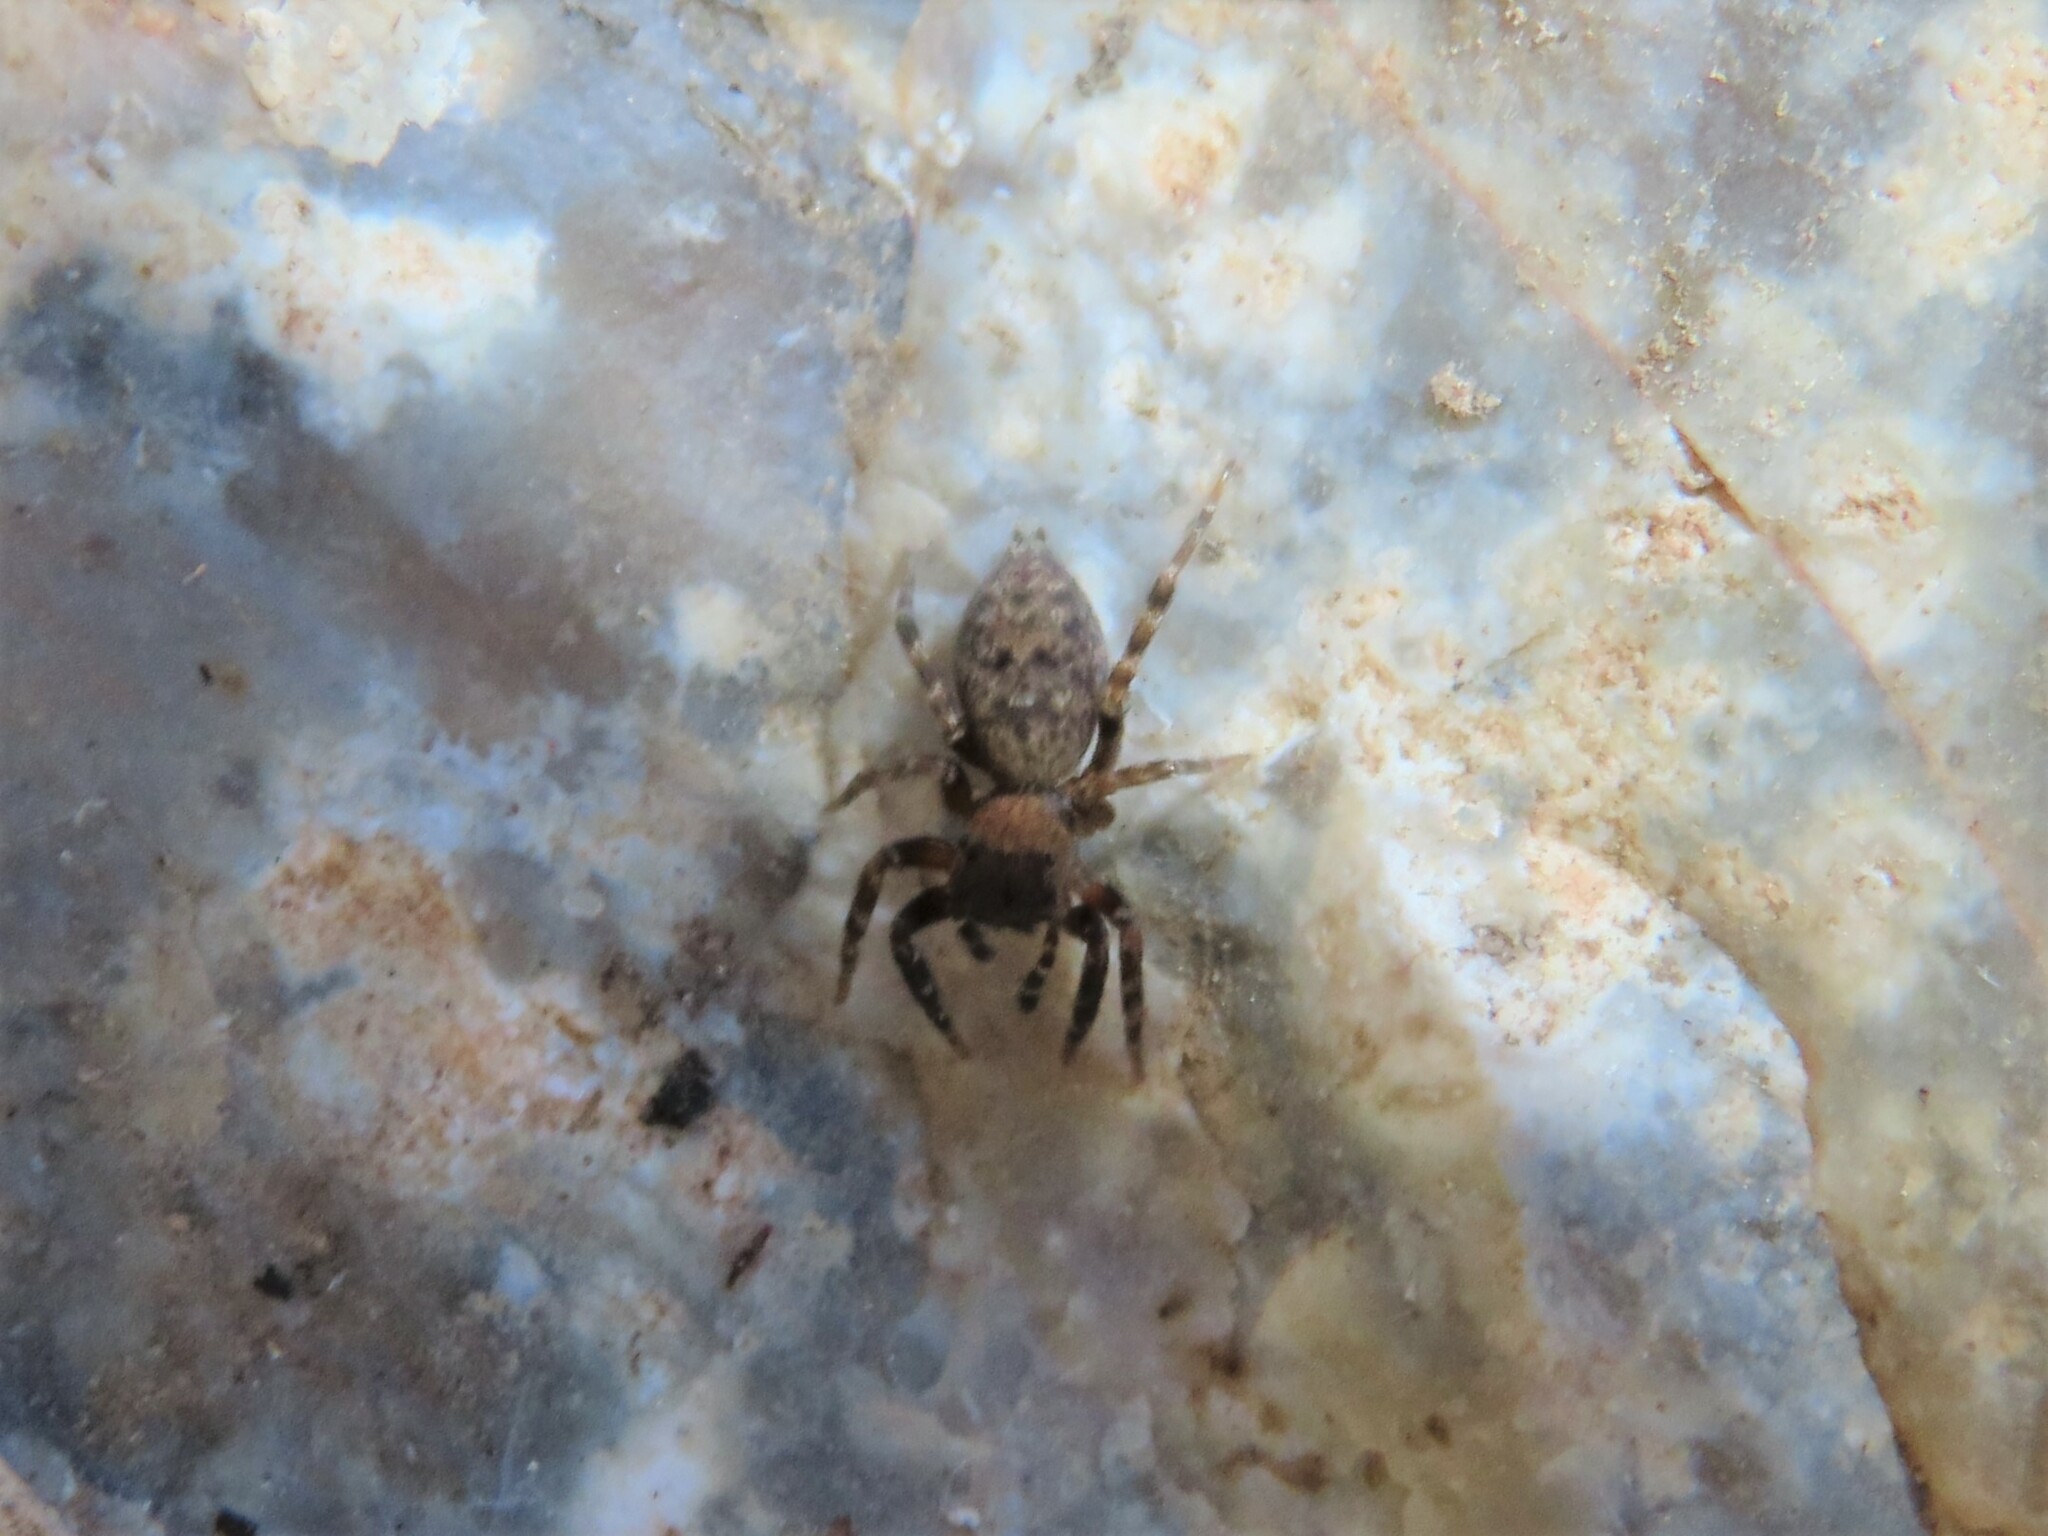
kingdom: Animalia
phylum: Arthropoda
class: Arachnida
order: Araneae
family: Salticidae
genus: Cyrba
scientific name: Cyrba algerina
